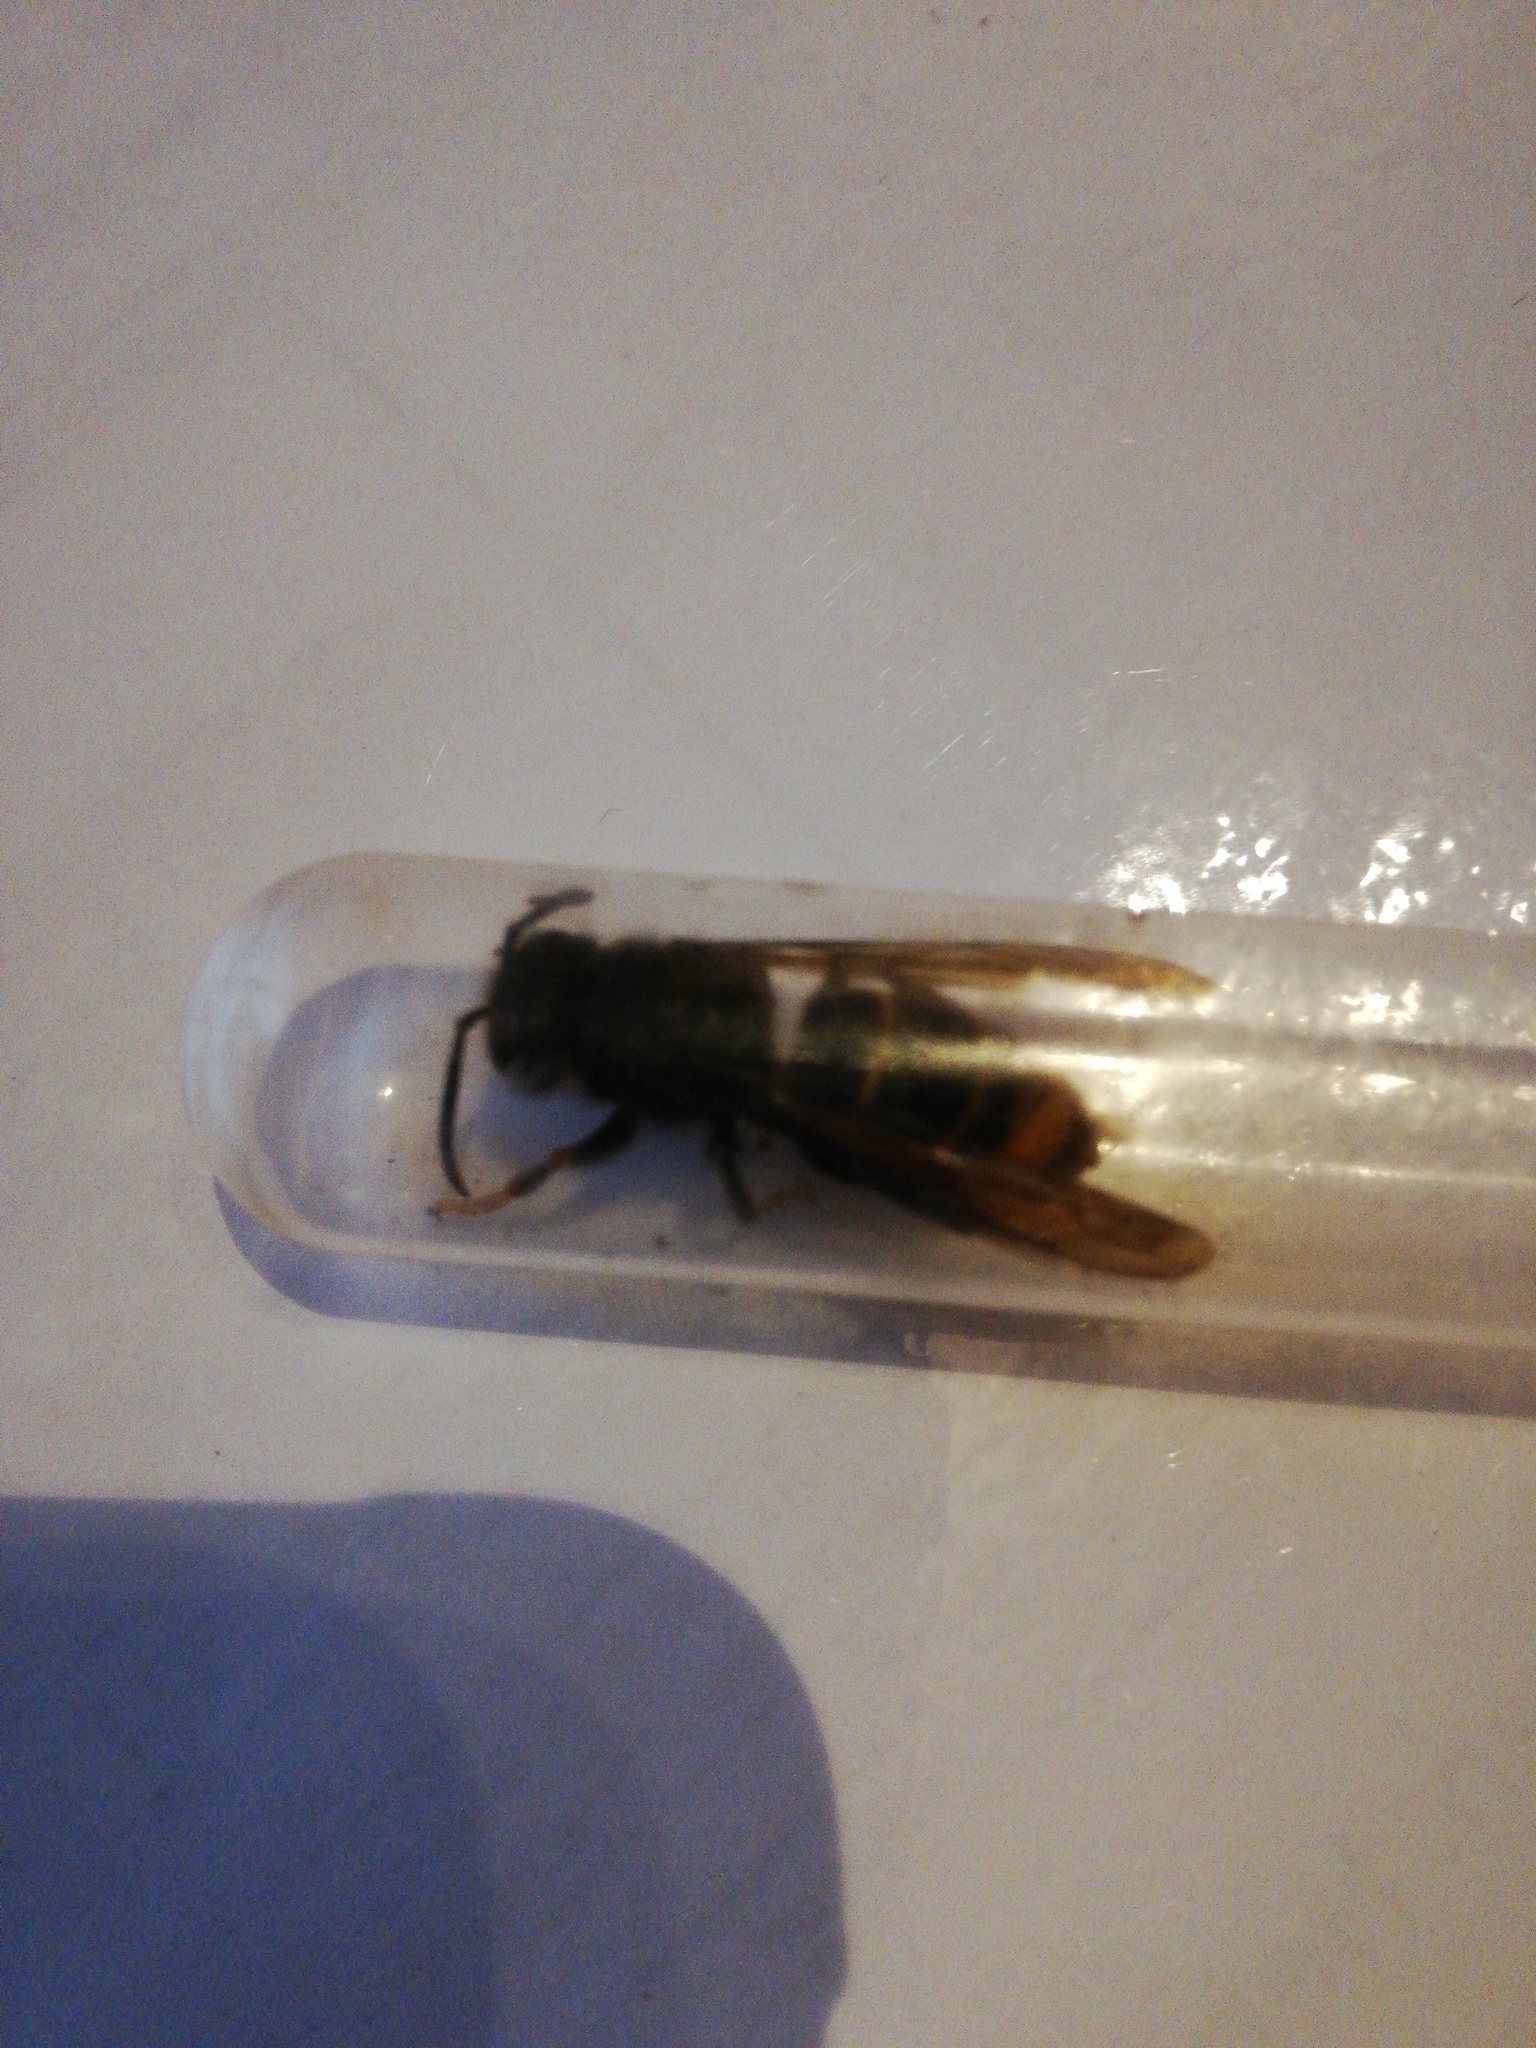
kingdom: Animalia
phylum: Arthropoda
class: Insecta
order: Hymenoptera
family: Vespidae
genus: Vespa
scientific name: Vespa velutina
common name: Asian hornet
